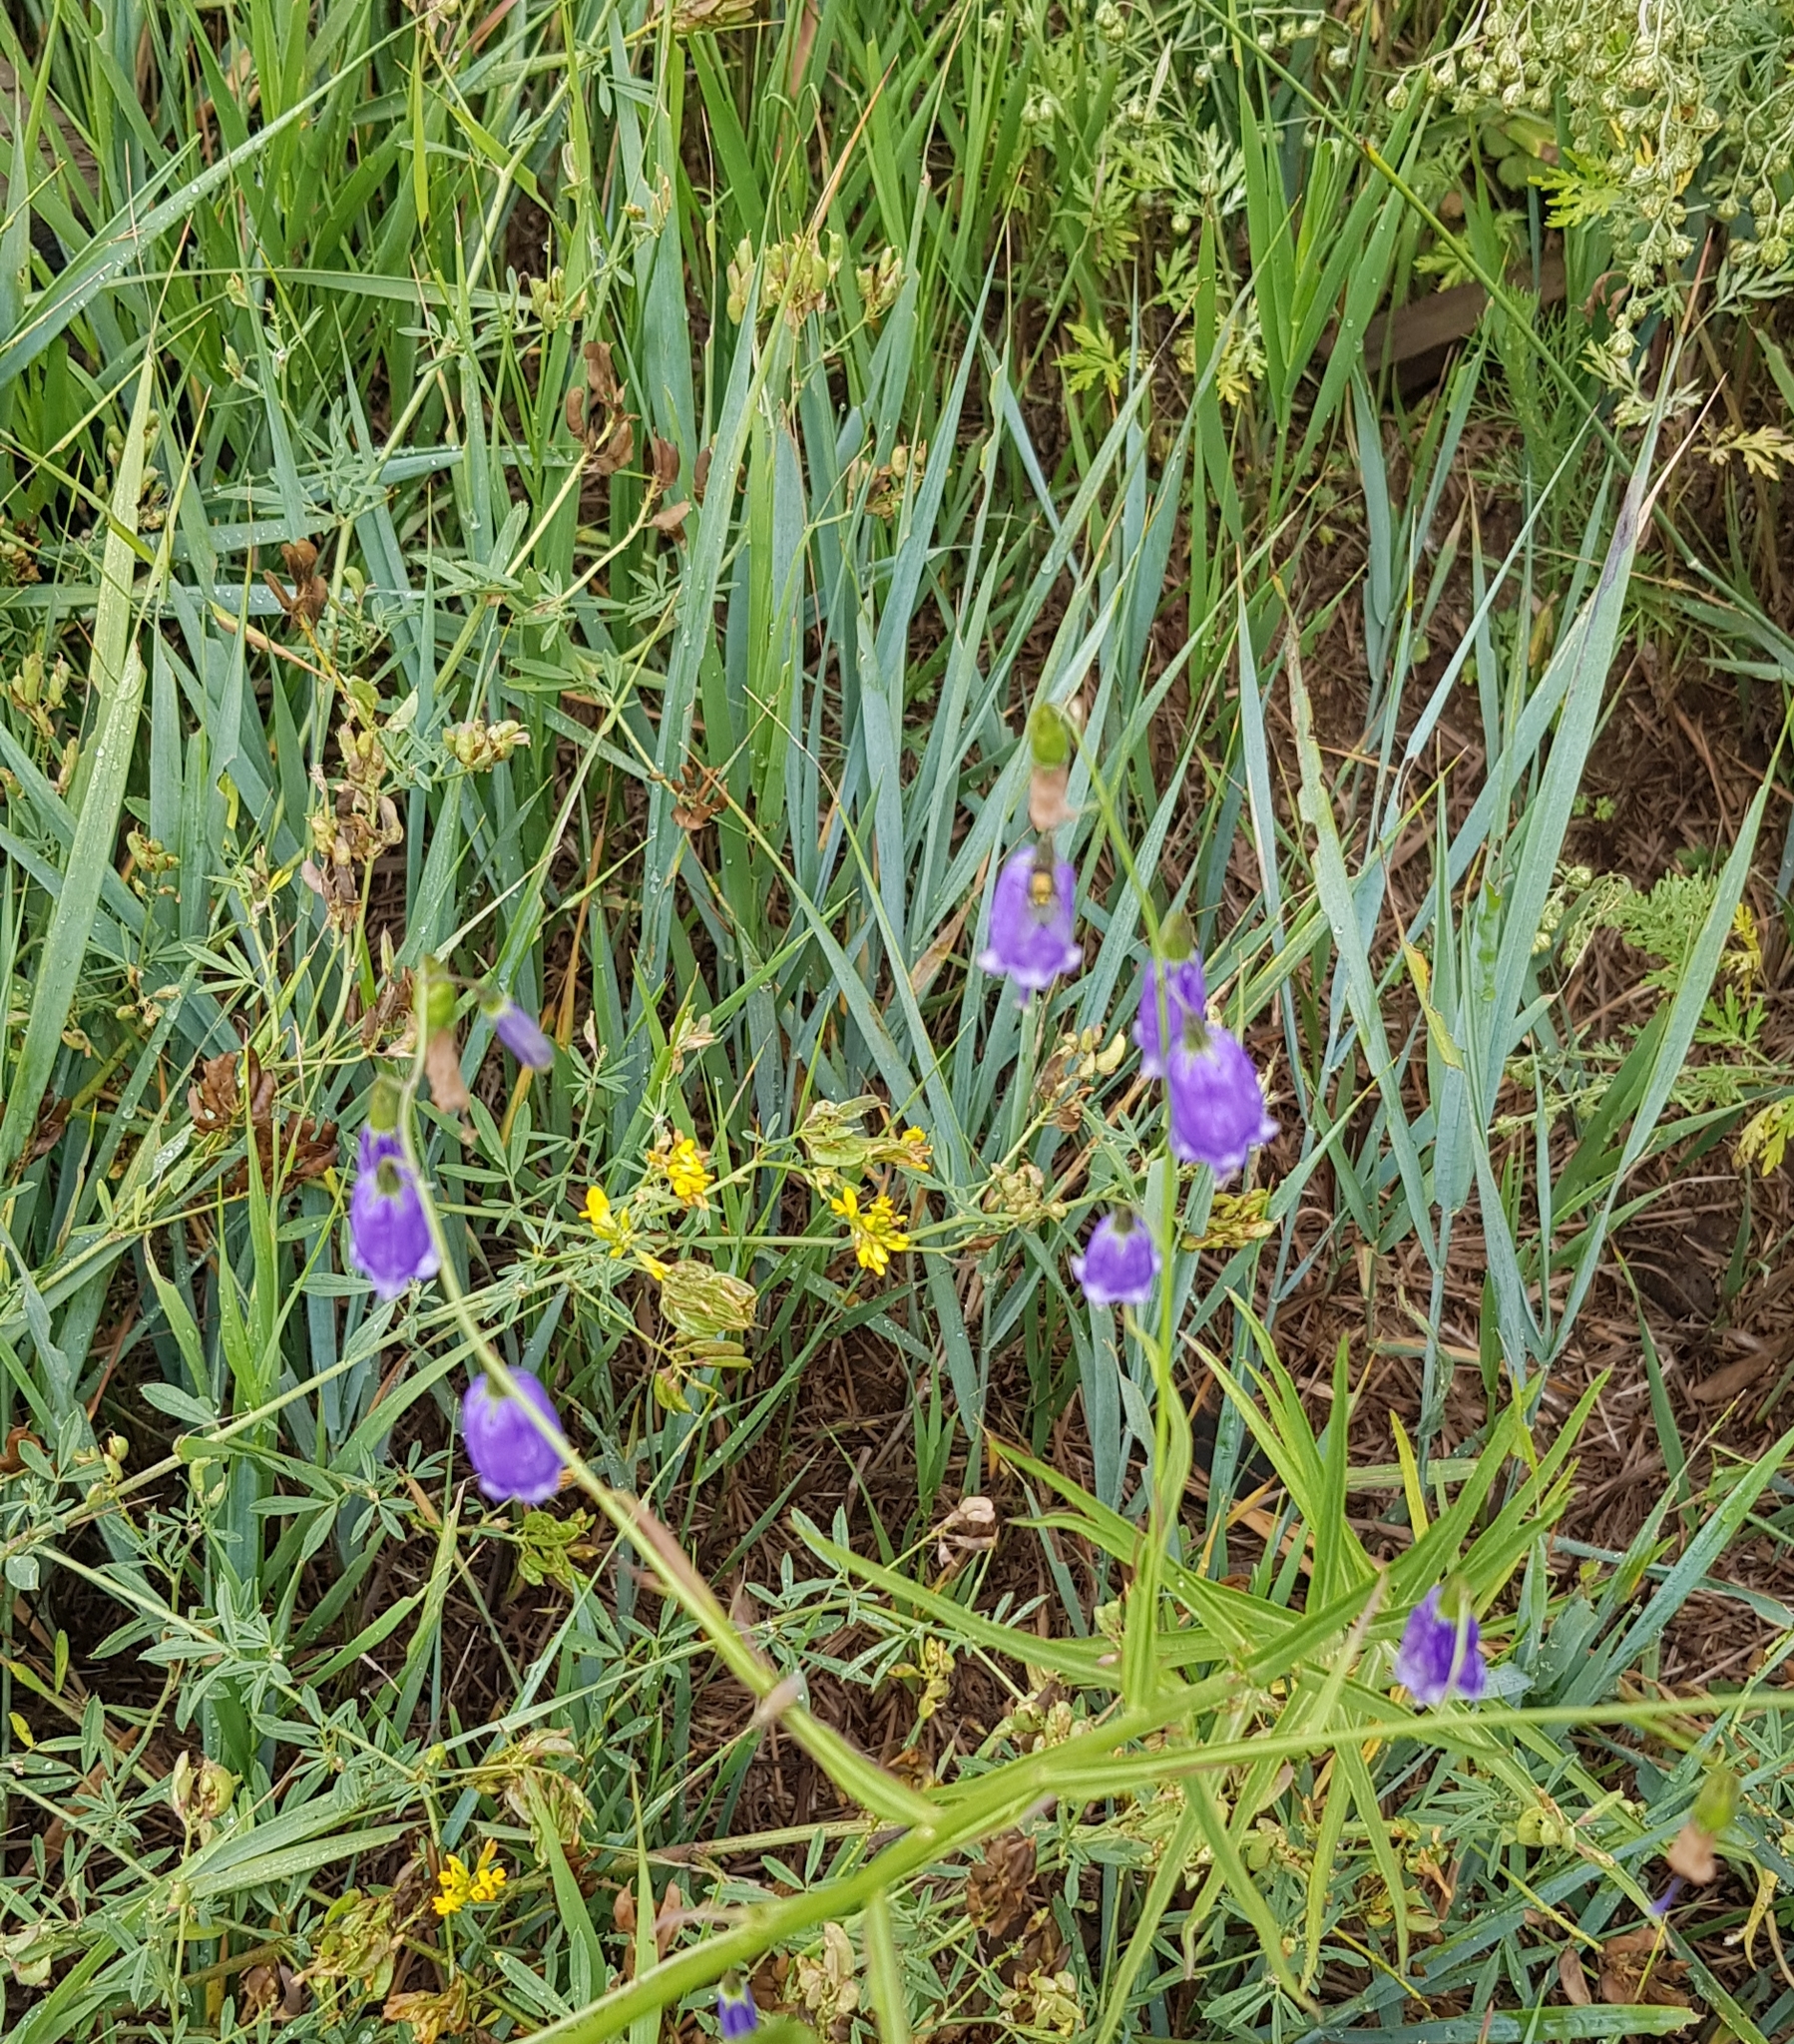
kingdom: Plantae
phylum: Tracheophyta
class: Magnoliopsida
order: Asterales
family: Campanulaceae
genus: Adenophora
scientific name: Adenophora stenanthina
